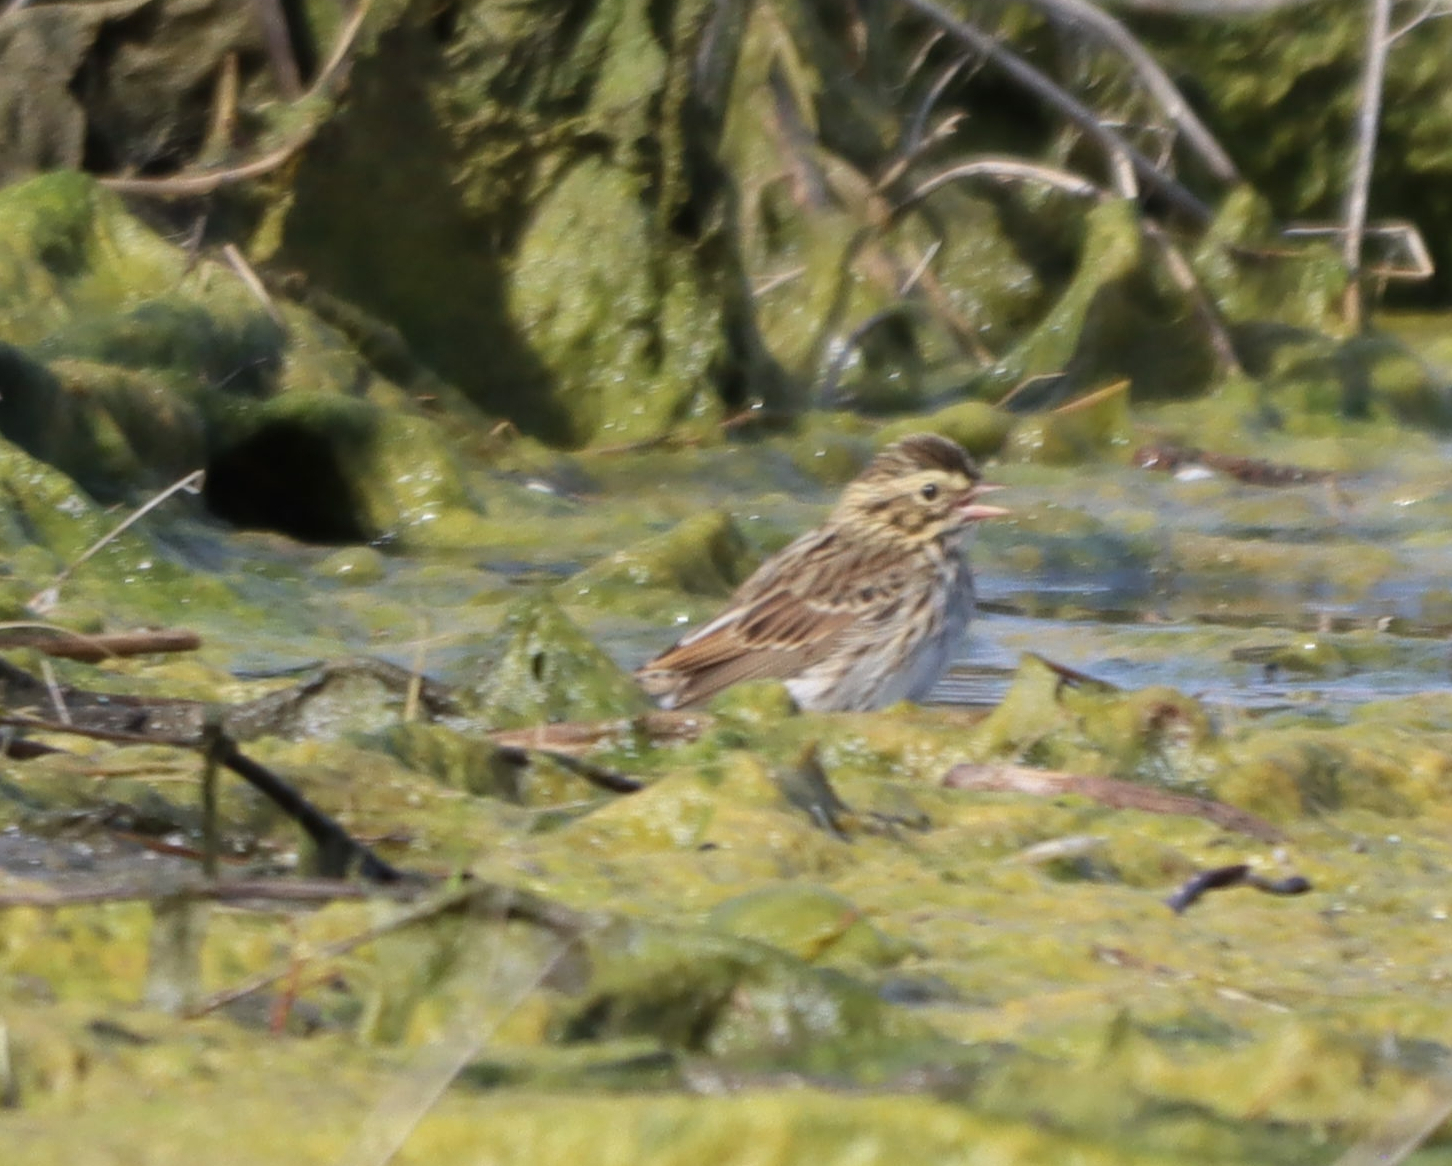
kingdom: Animalia
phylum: Chordata
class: Aves
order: Passeriformes
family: Passerellidae
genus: Passerculus
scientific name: Passerculus sandwichensis
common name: Savannah sparrow
